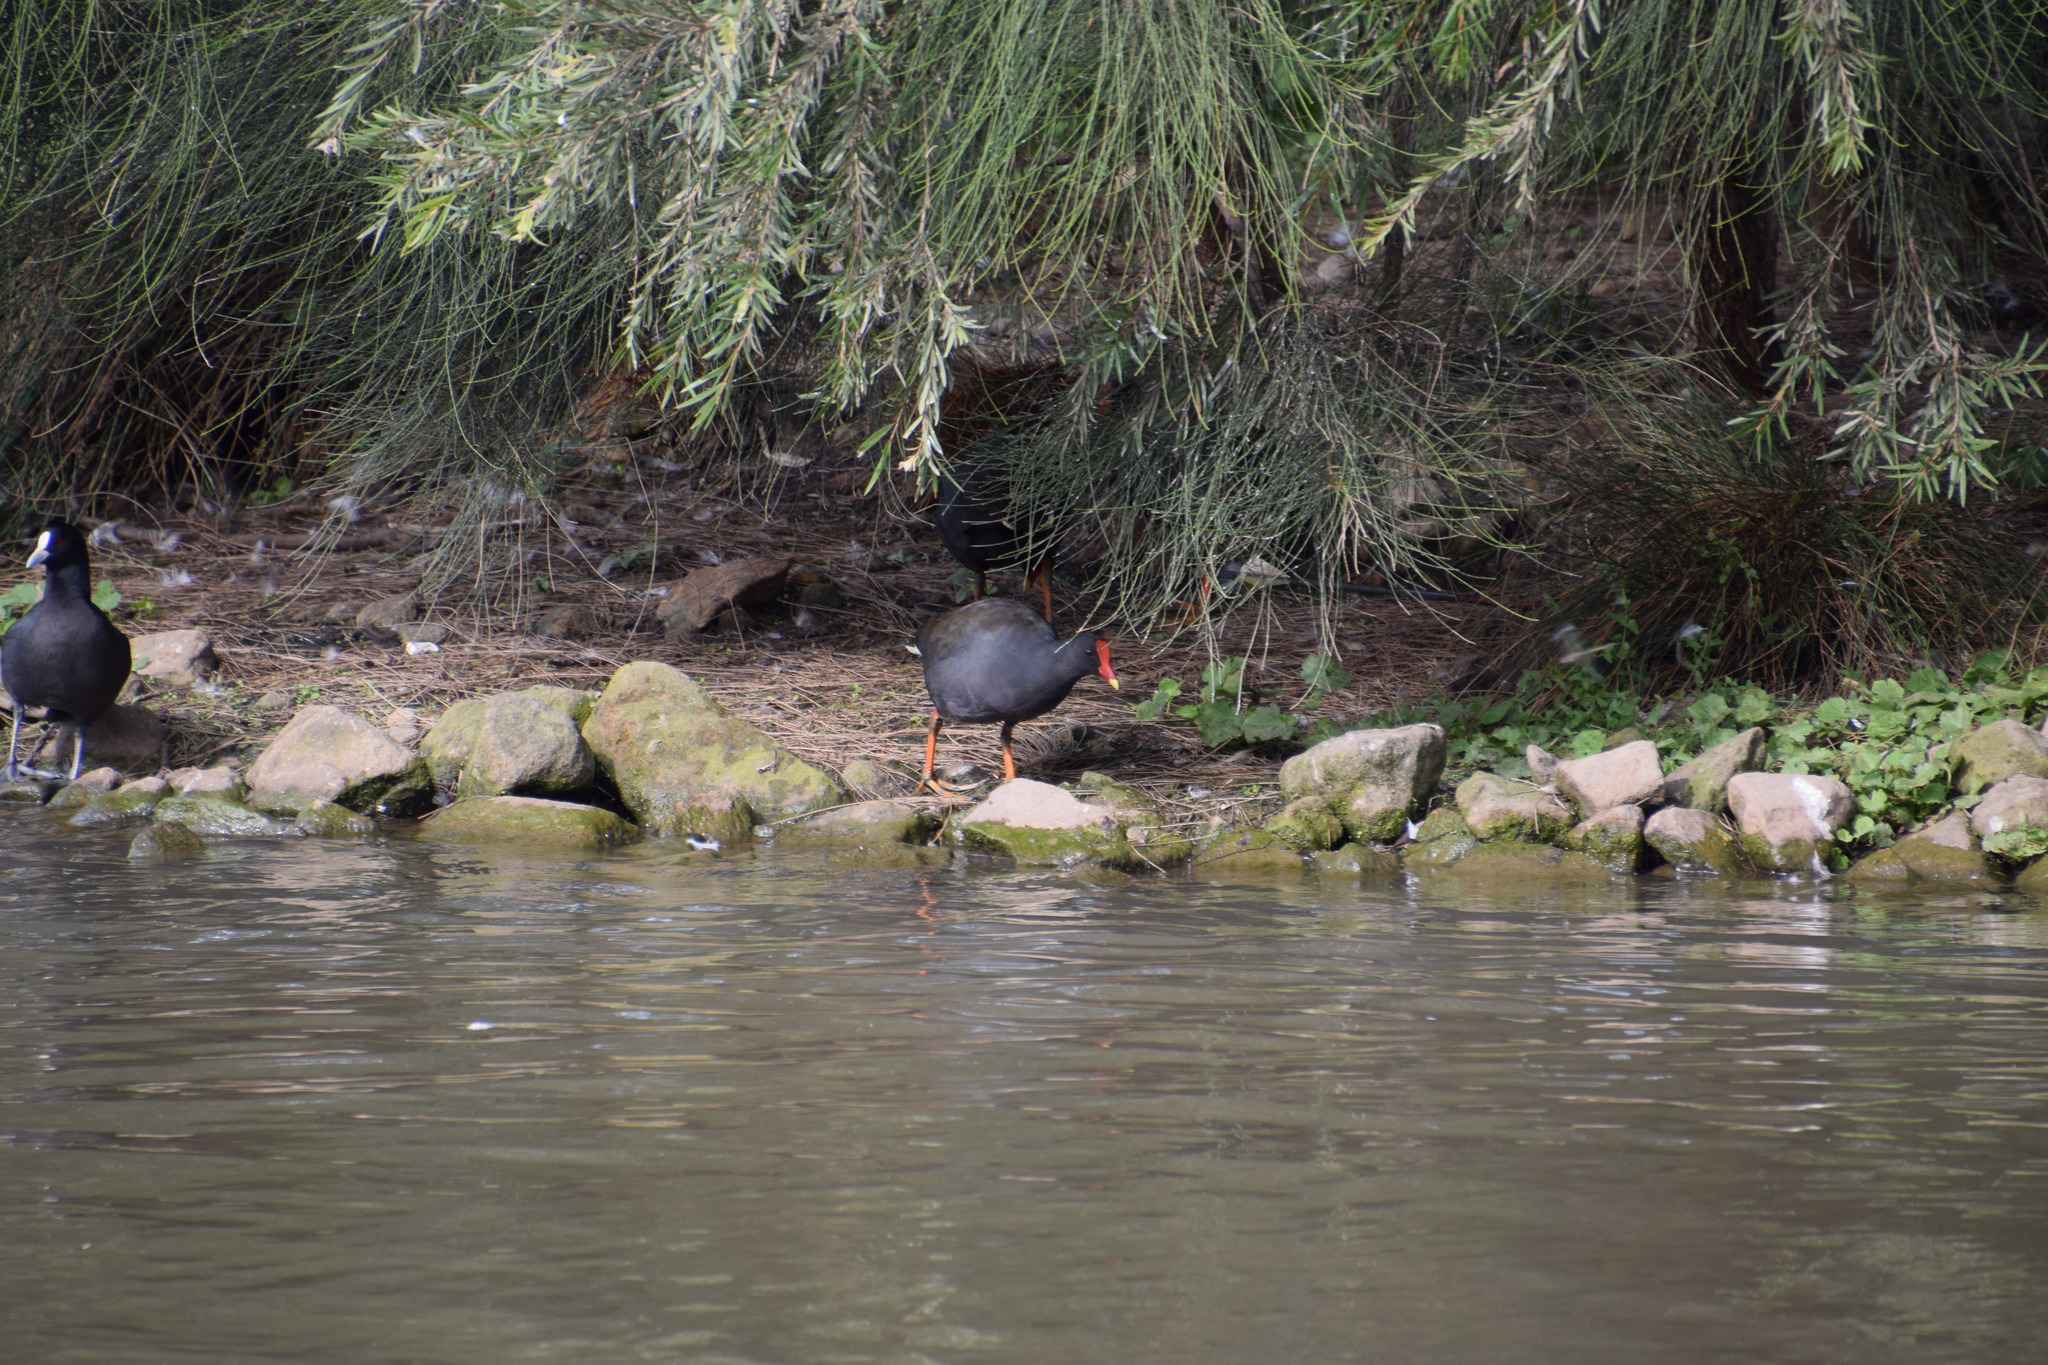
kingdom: Animalia
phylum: Chordata
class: Aves
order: Gruiformes
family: Rallidae
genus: Gallinula
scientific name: Gallinula tenebrosa
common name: Dusky moorhen
